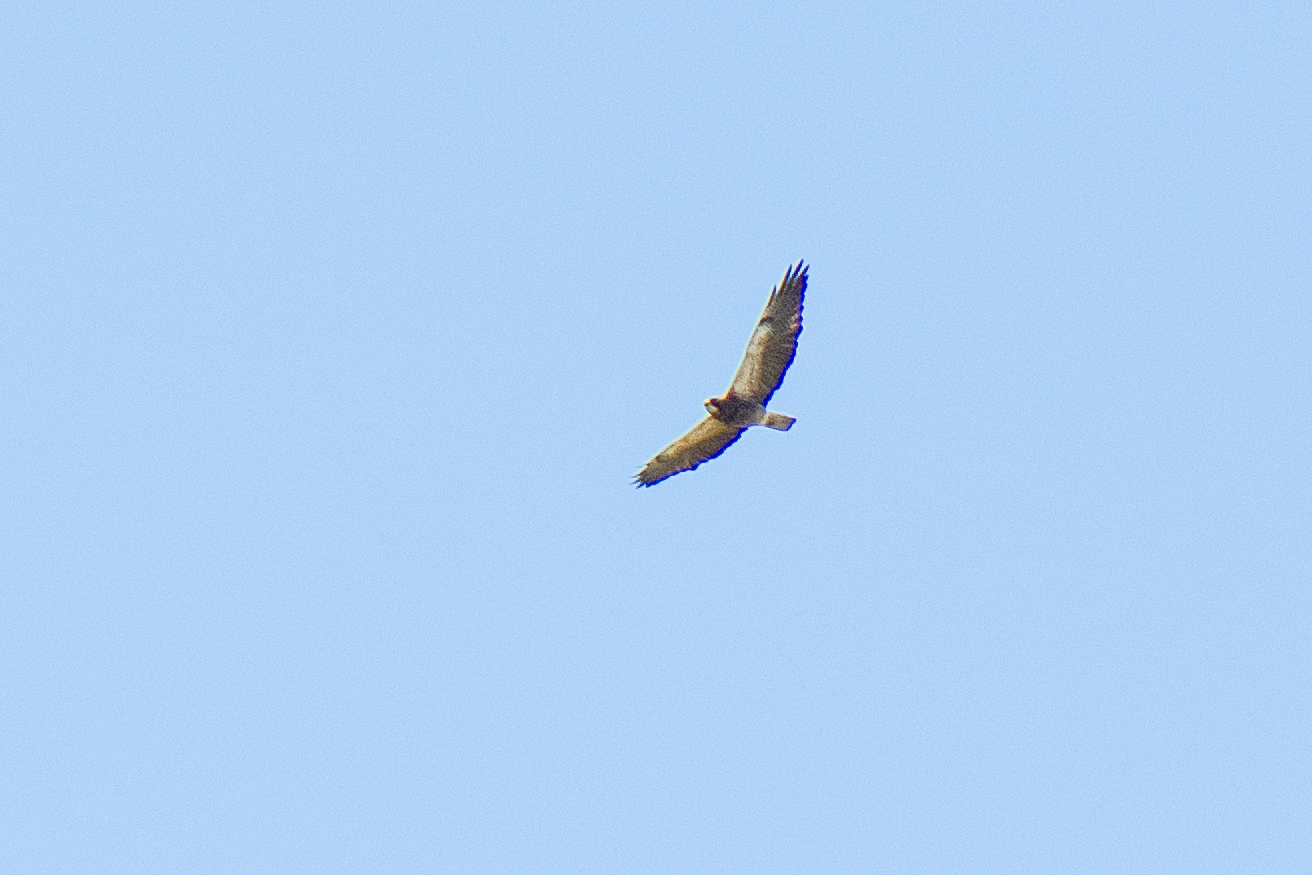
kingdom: Animalia
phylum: Chordata
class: Aves
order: Accipitriformes
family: Accipitridae
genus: Buteo
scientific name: Buteo swainsoni
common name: Swainson's hawk
